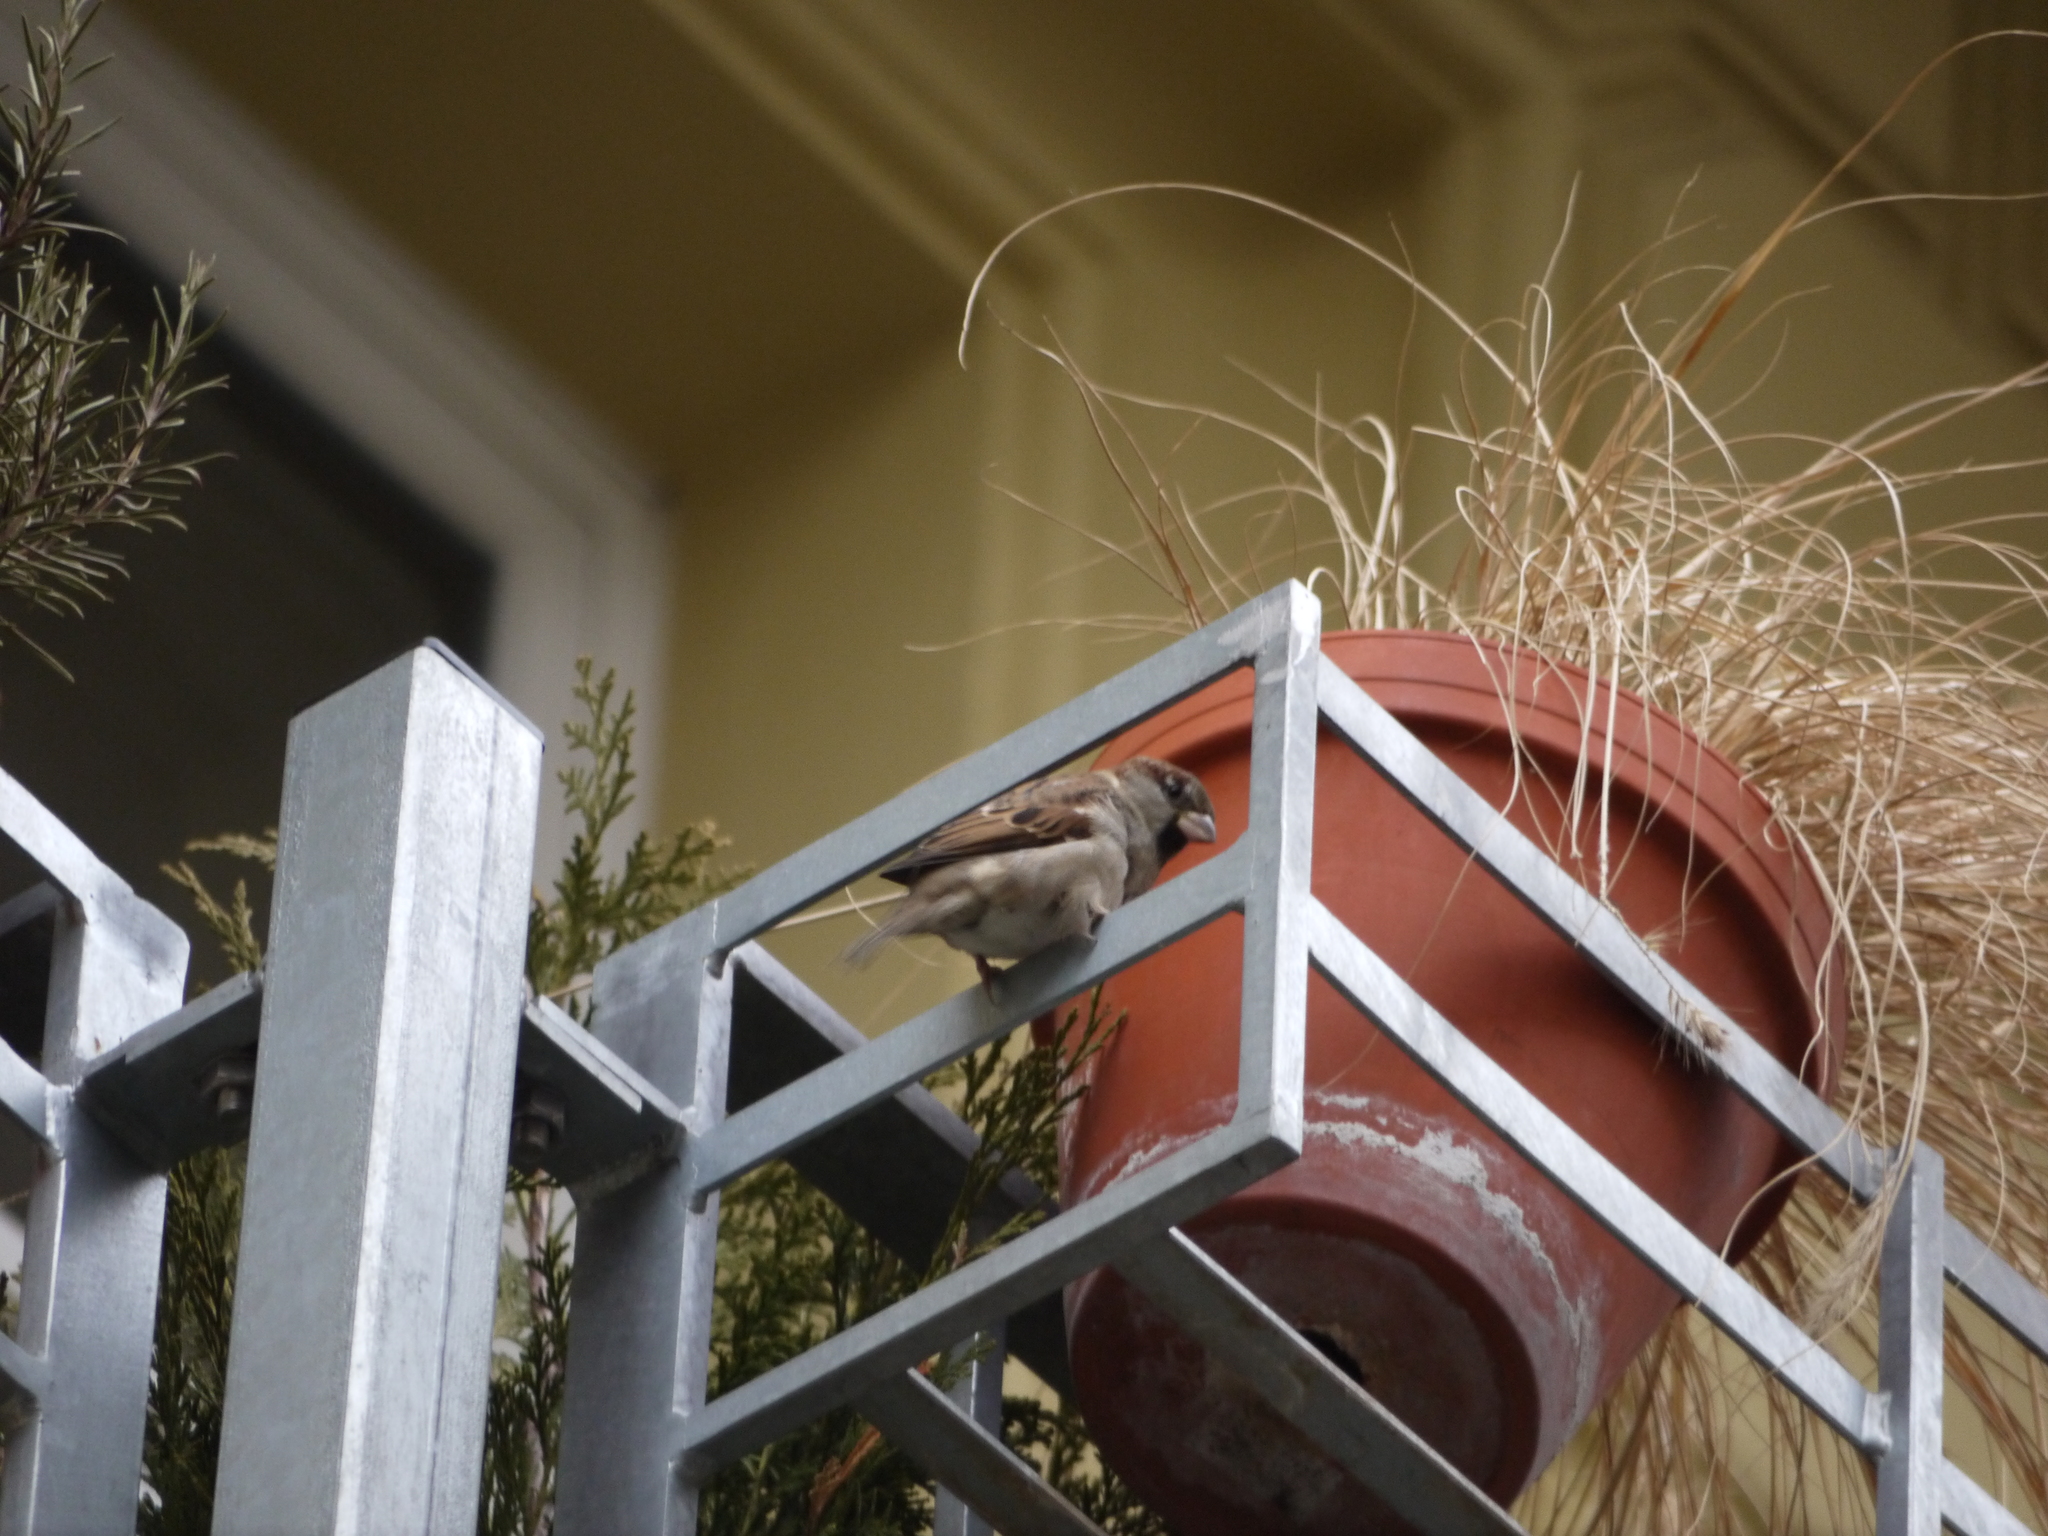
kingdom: Animalia
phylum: Chordata
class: Aves
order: Passeriformes
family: Passeridae
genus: Passer
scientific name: Passer domesticus
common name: House sparrow
